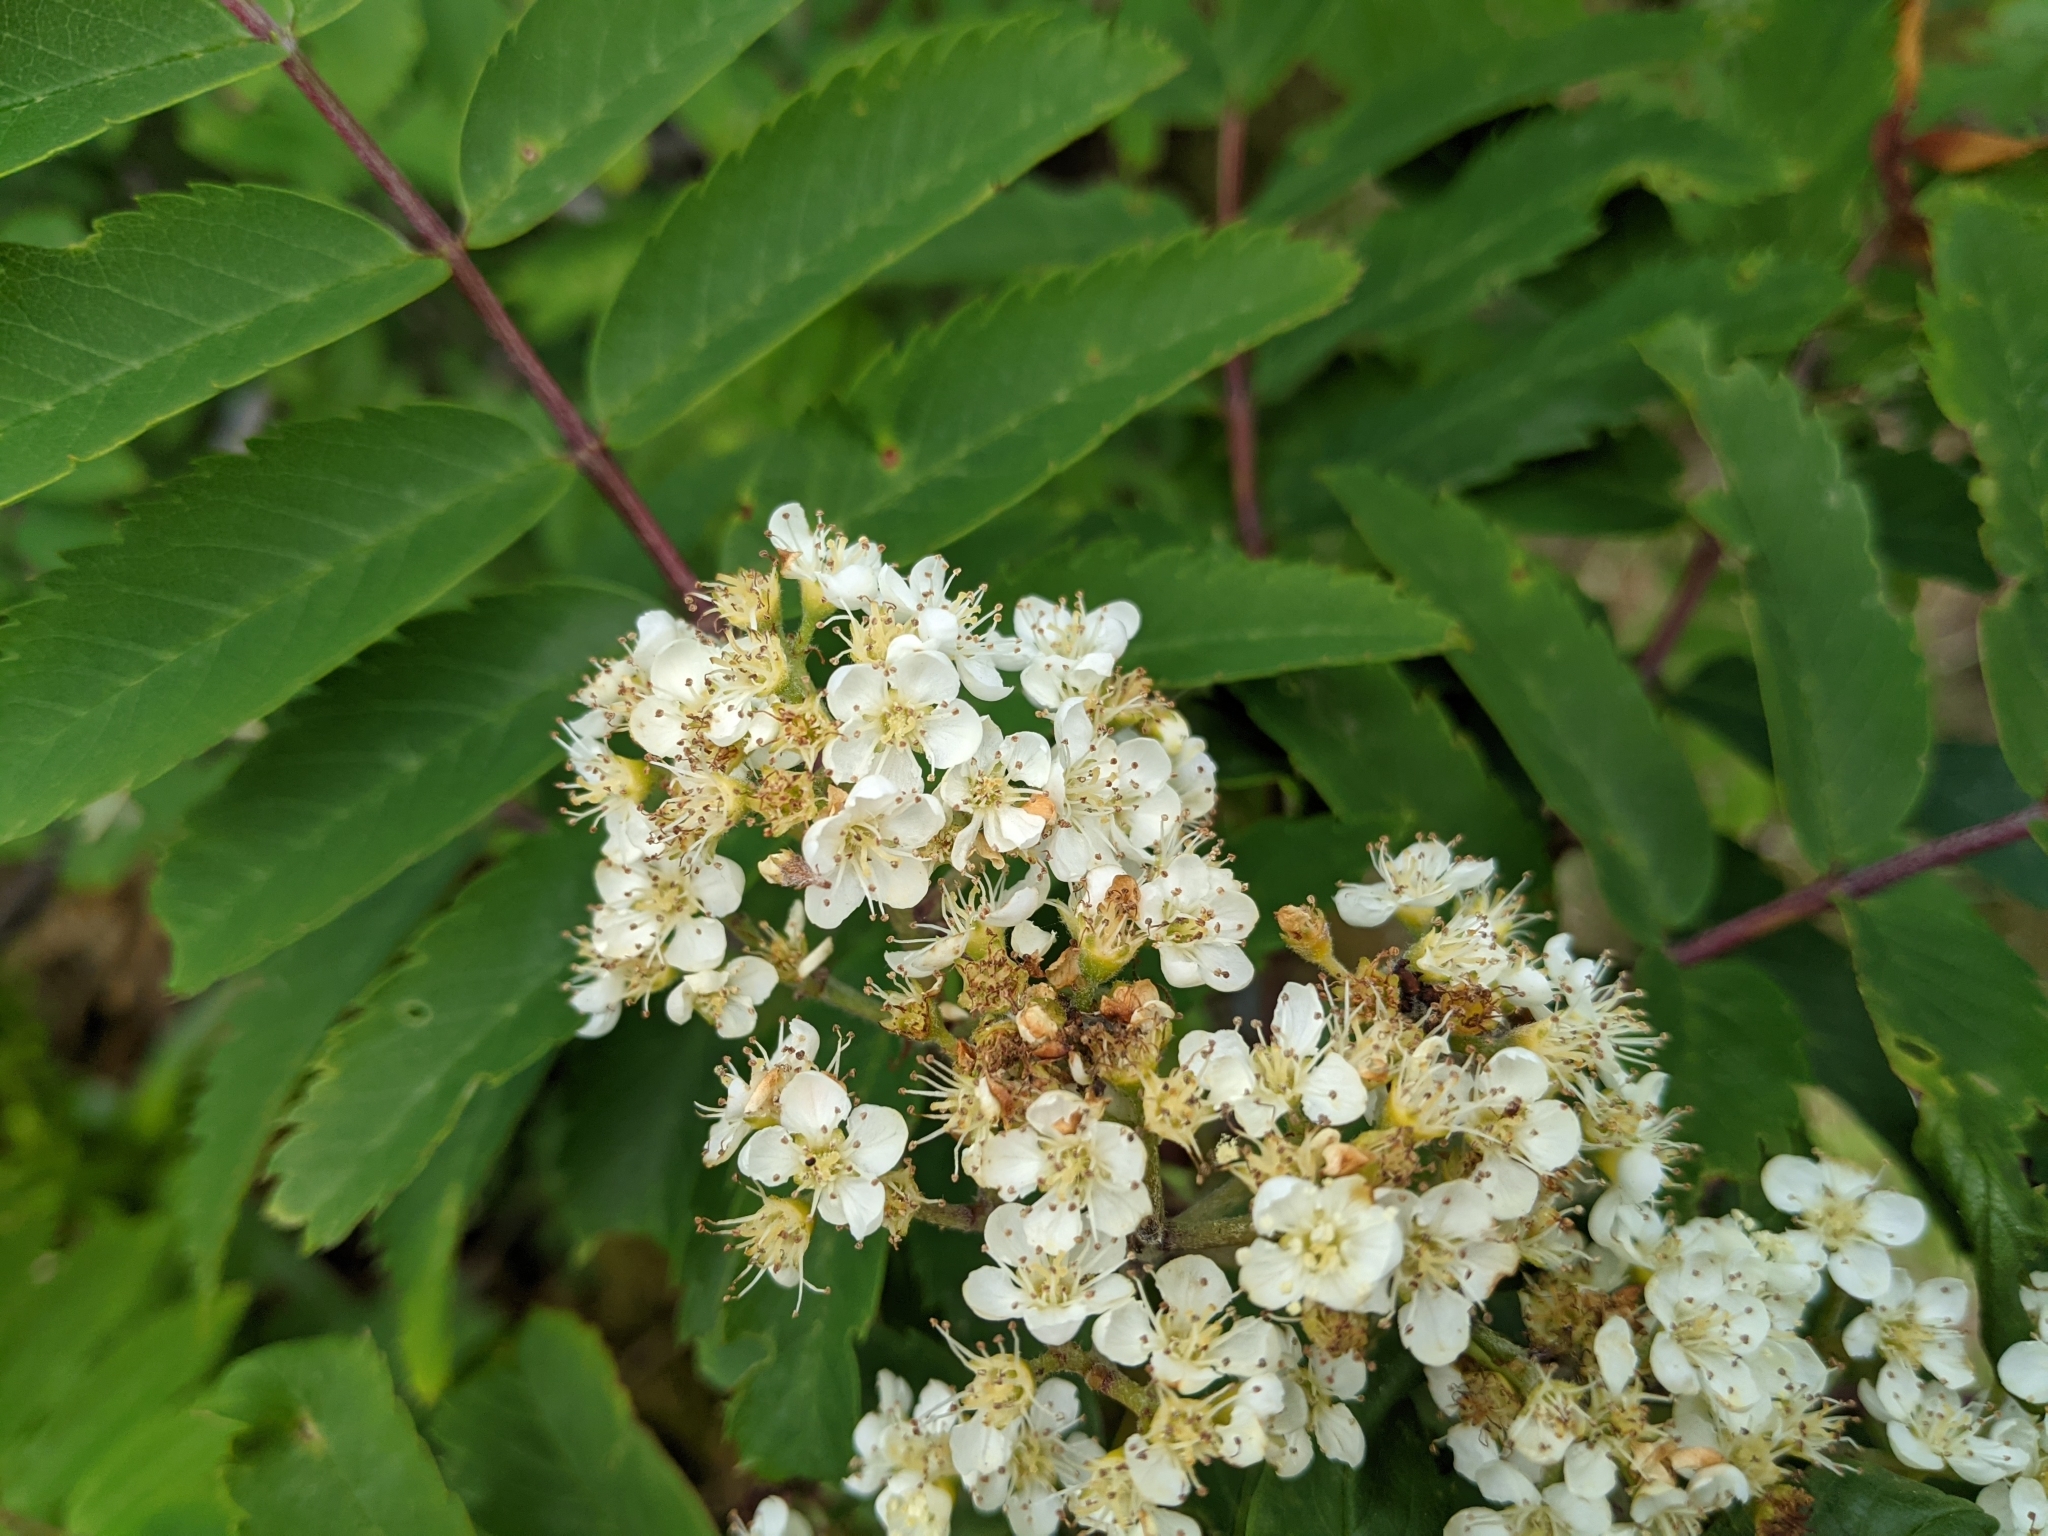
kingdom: Plantae
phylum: Tracheophyta
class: Magnoliopsida
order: Rosales
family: Rosaceae
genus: Sorbus
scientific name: Sorbus aucuparia
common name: Rowan
